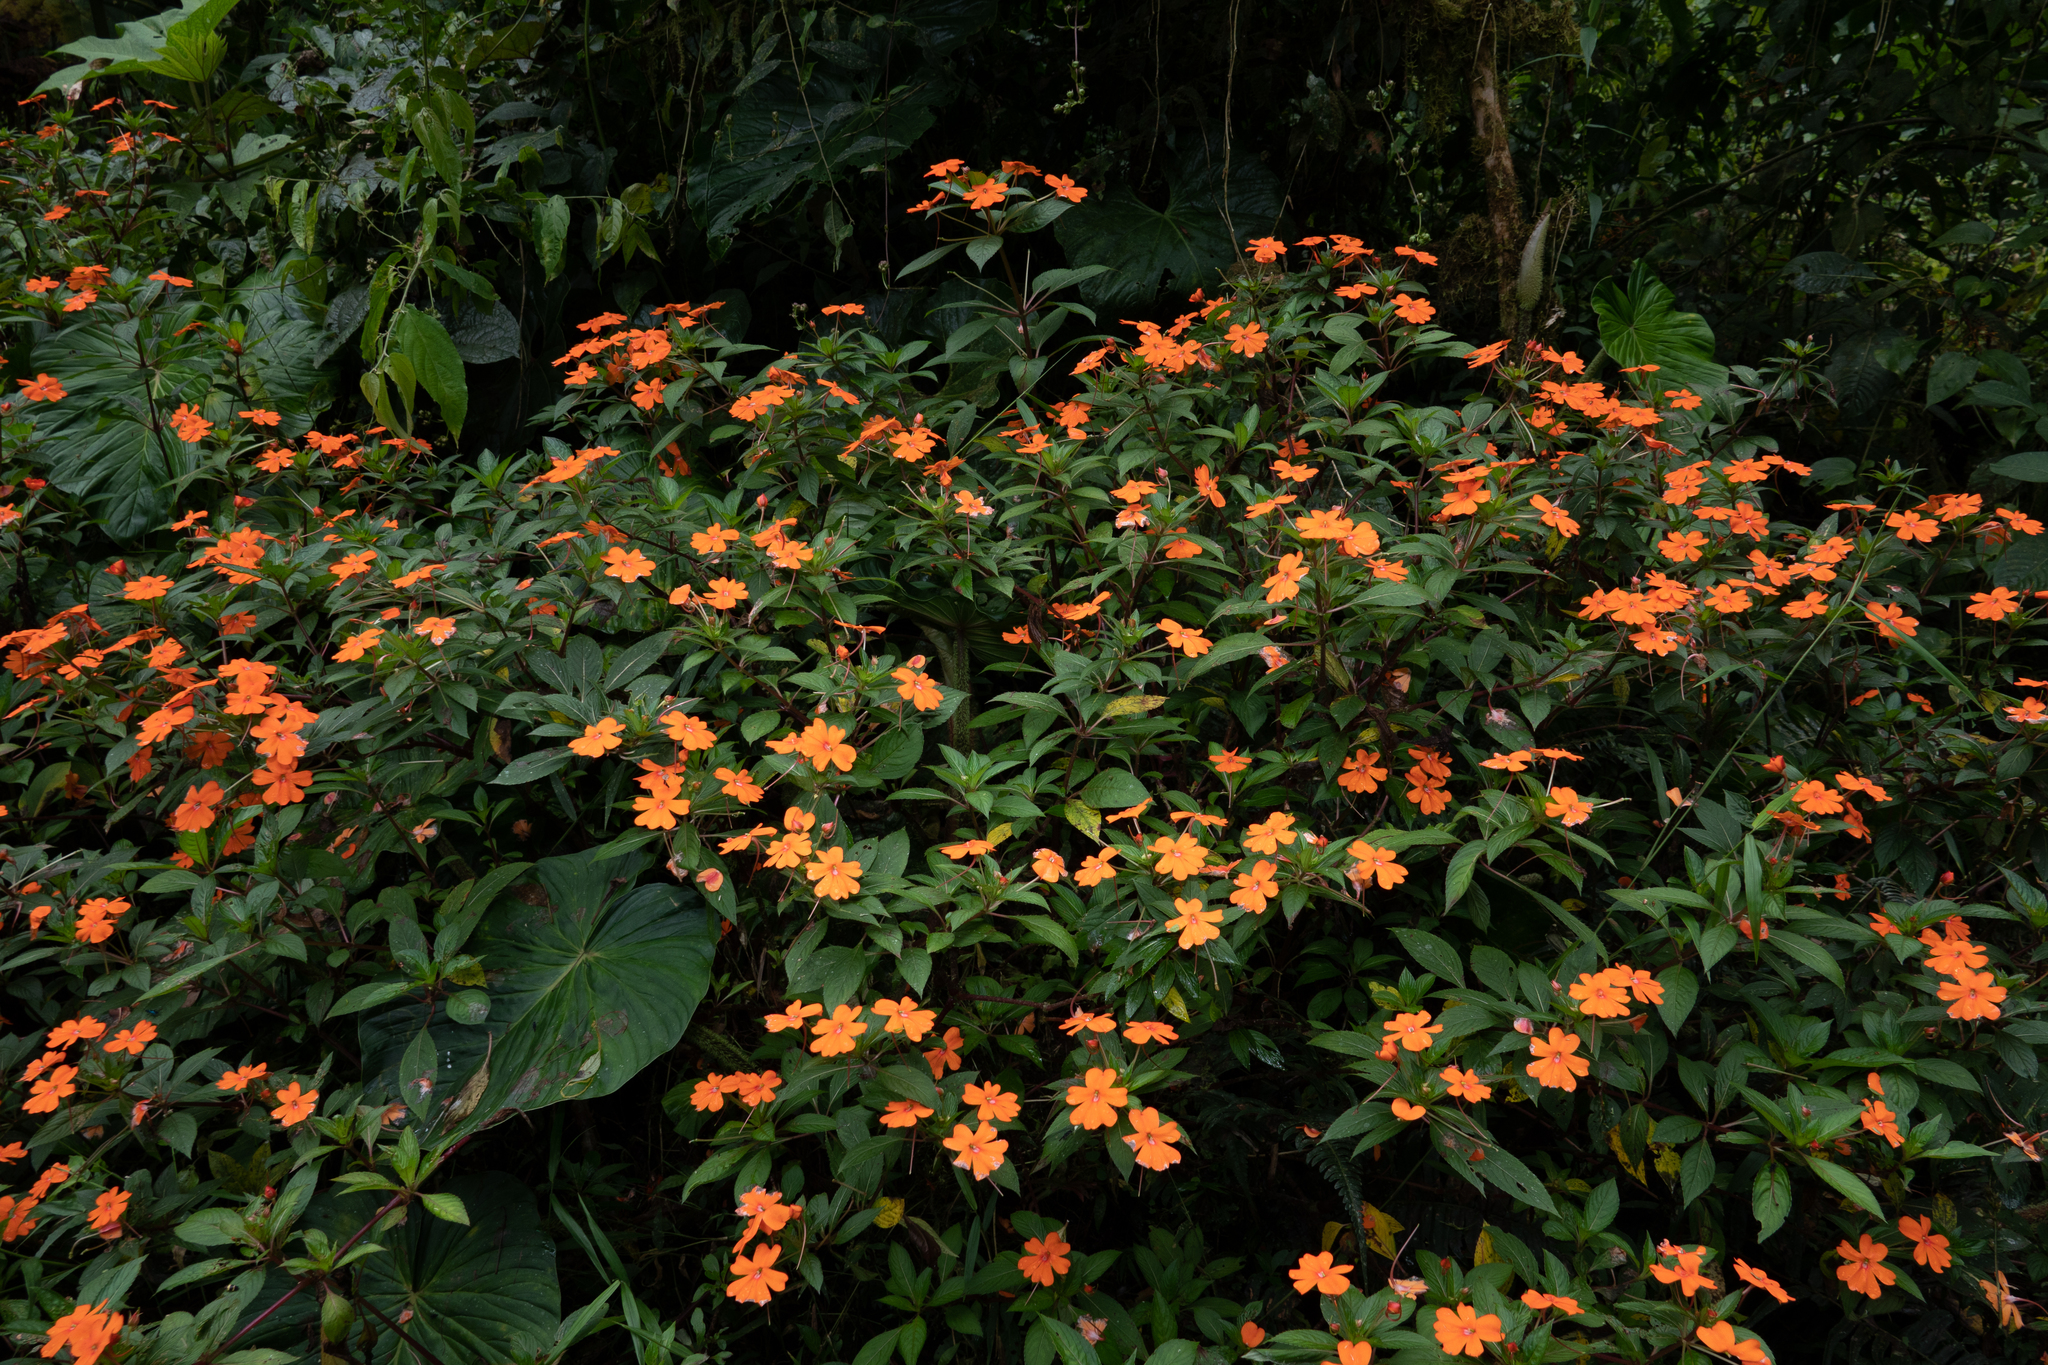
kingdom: Plantae
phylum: Tracheophyta
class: Magnoliopsida
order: Ericales
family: Balsaminaceae
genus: Impatiens
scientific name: Impatiens hawkeri
